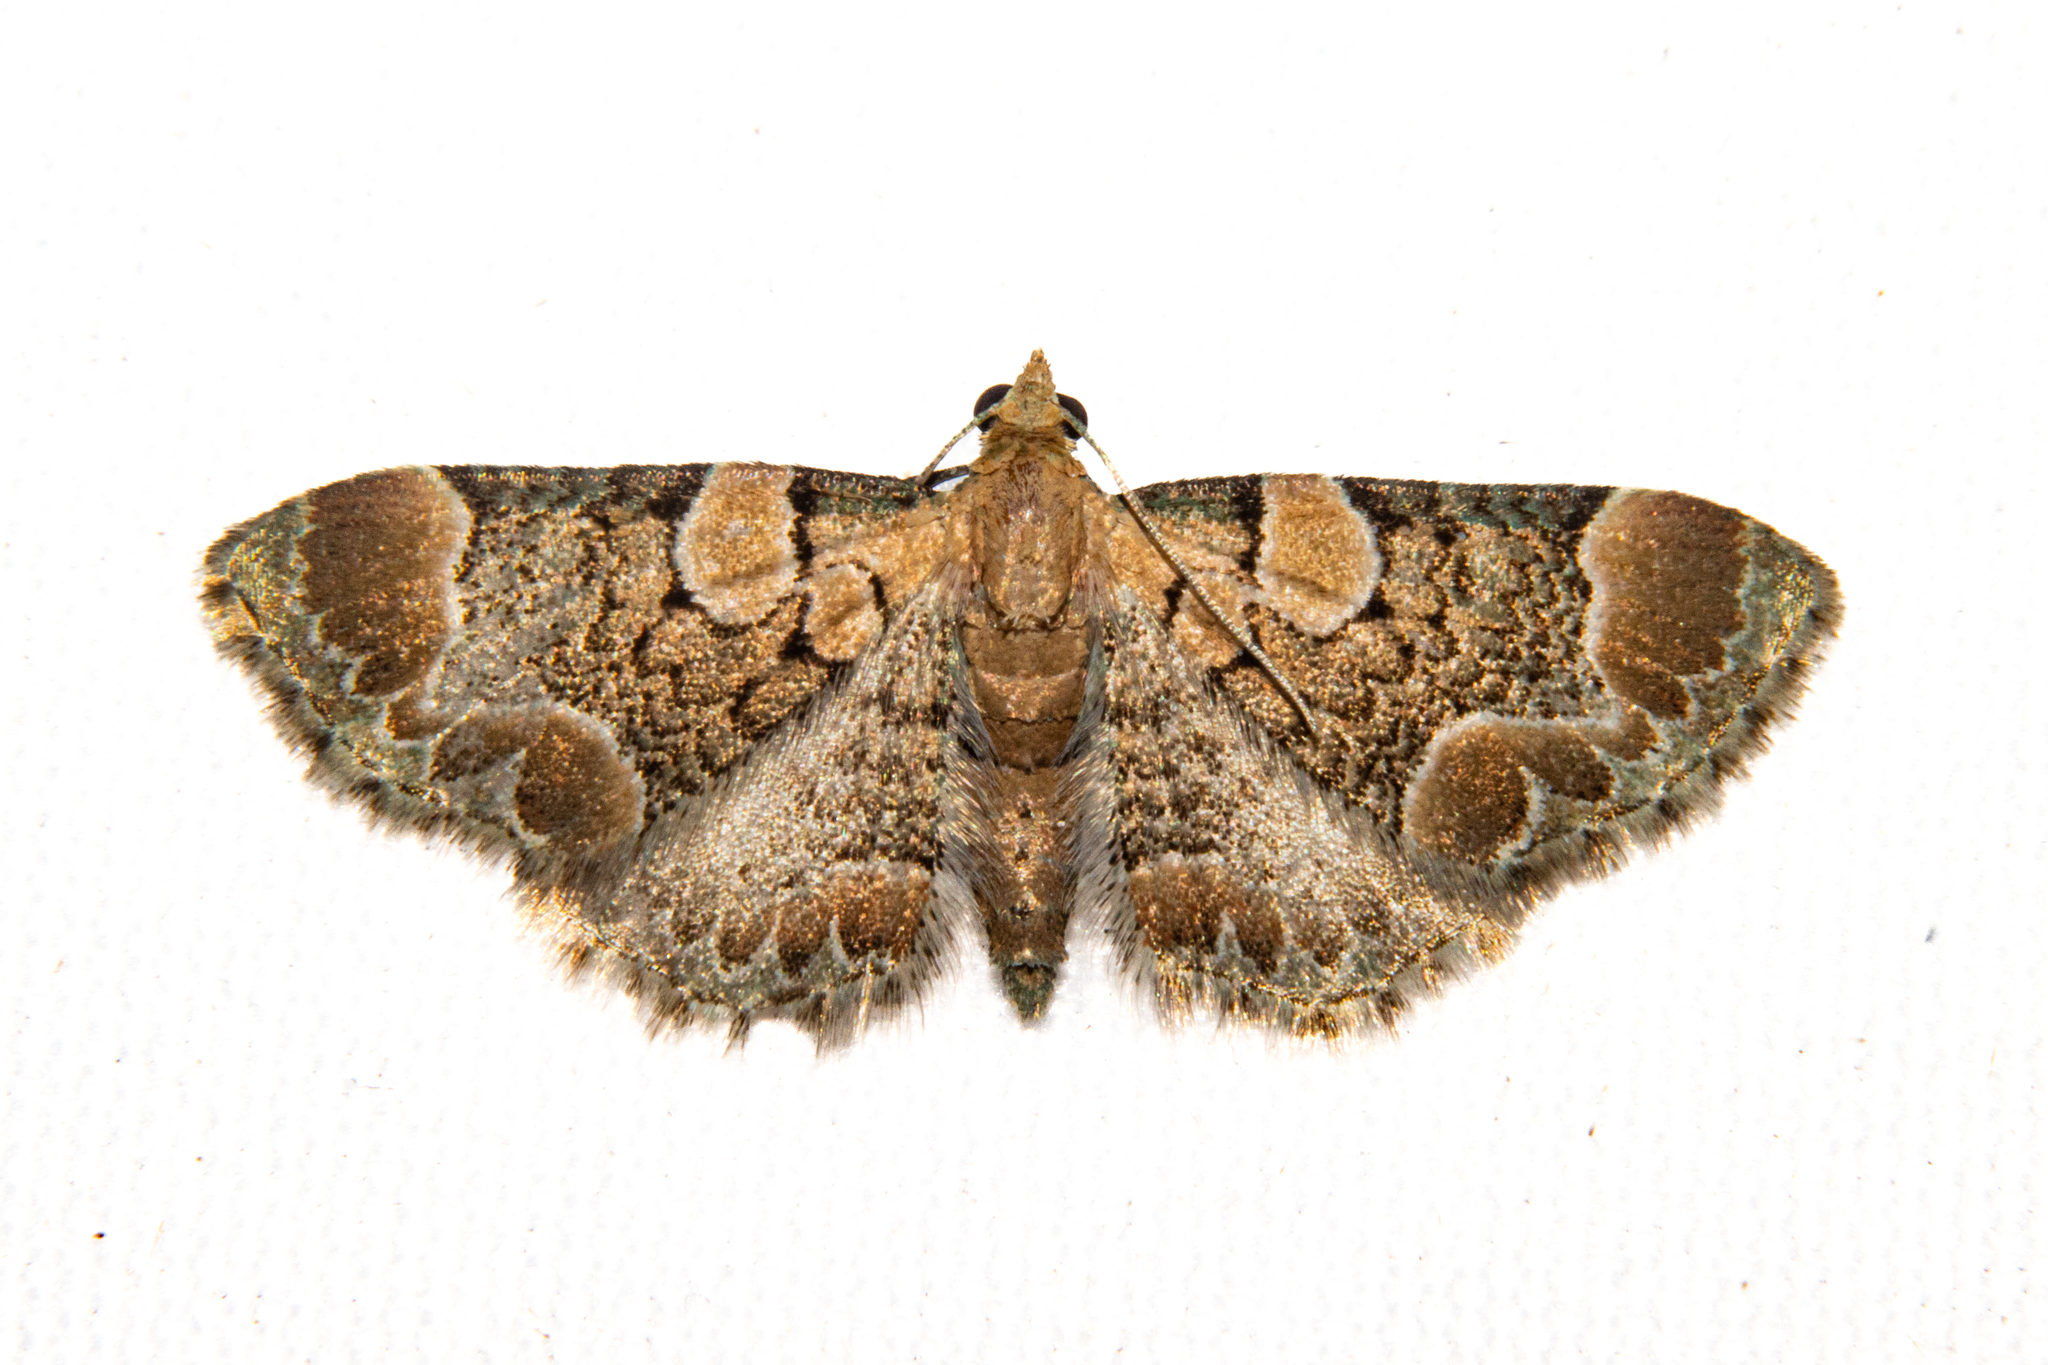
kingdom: Animalia
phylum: Arthropoda
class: Insecta
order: Lepidoptera
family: Geometridae
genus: Chloroclystis
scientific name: Chloroclystis
